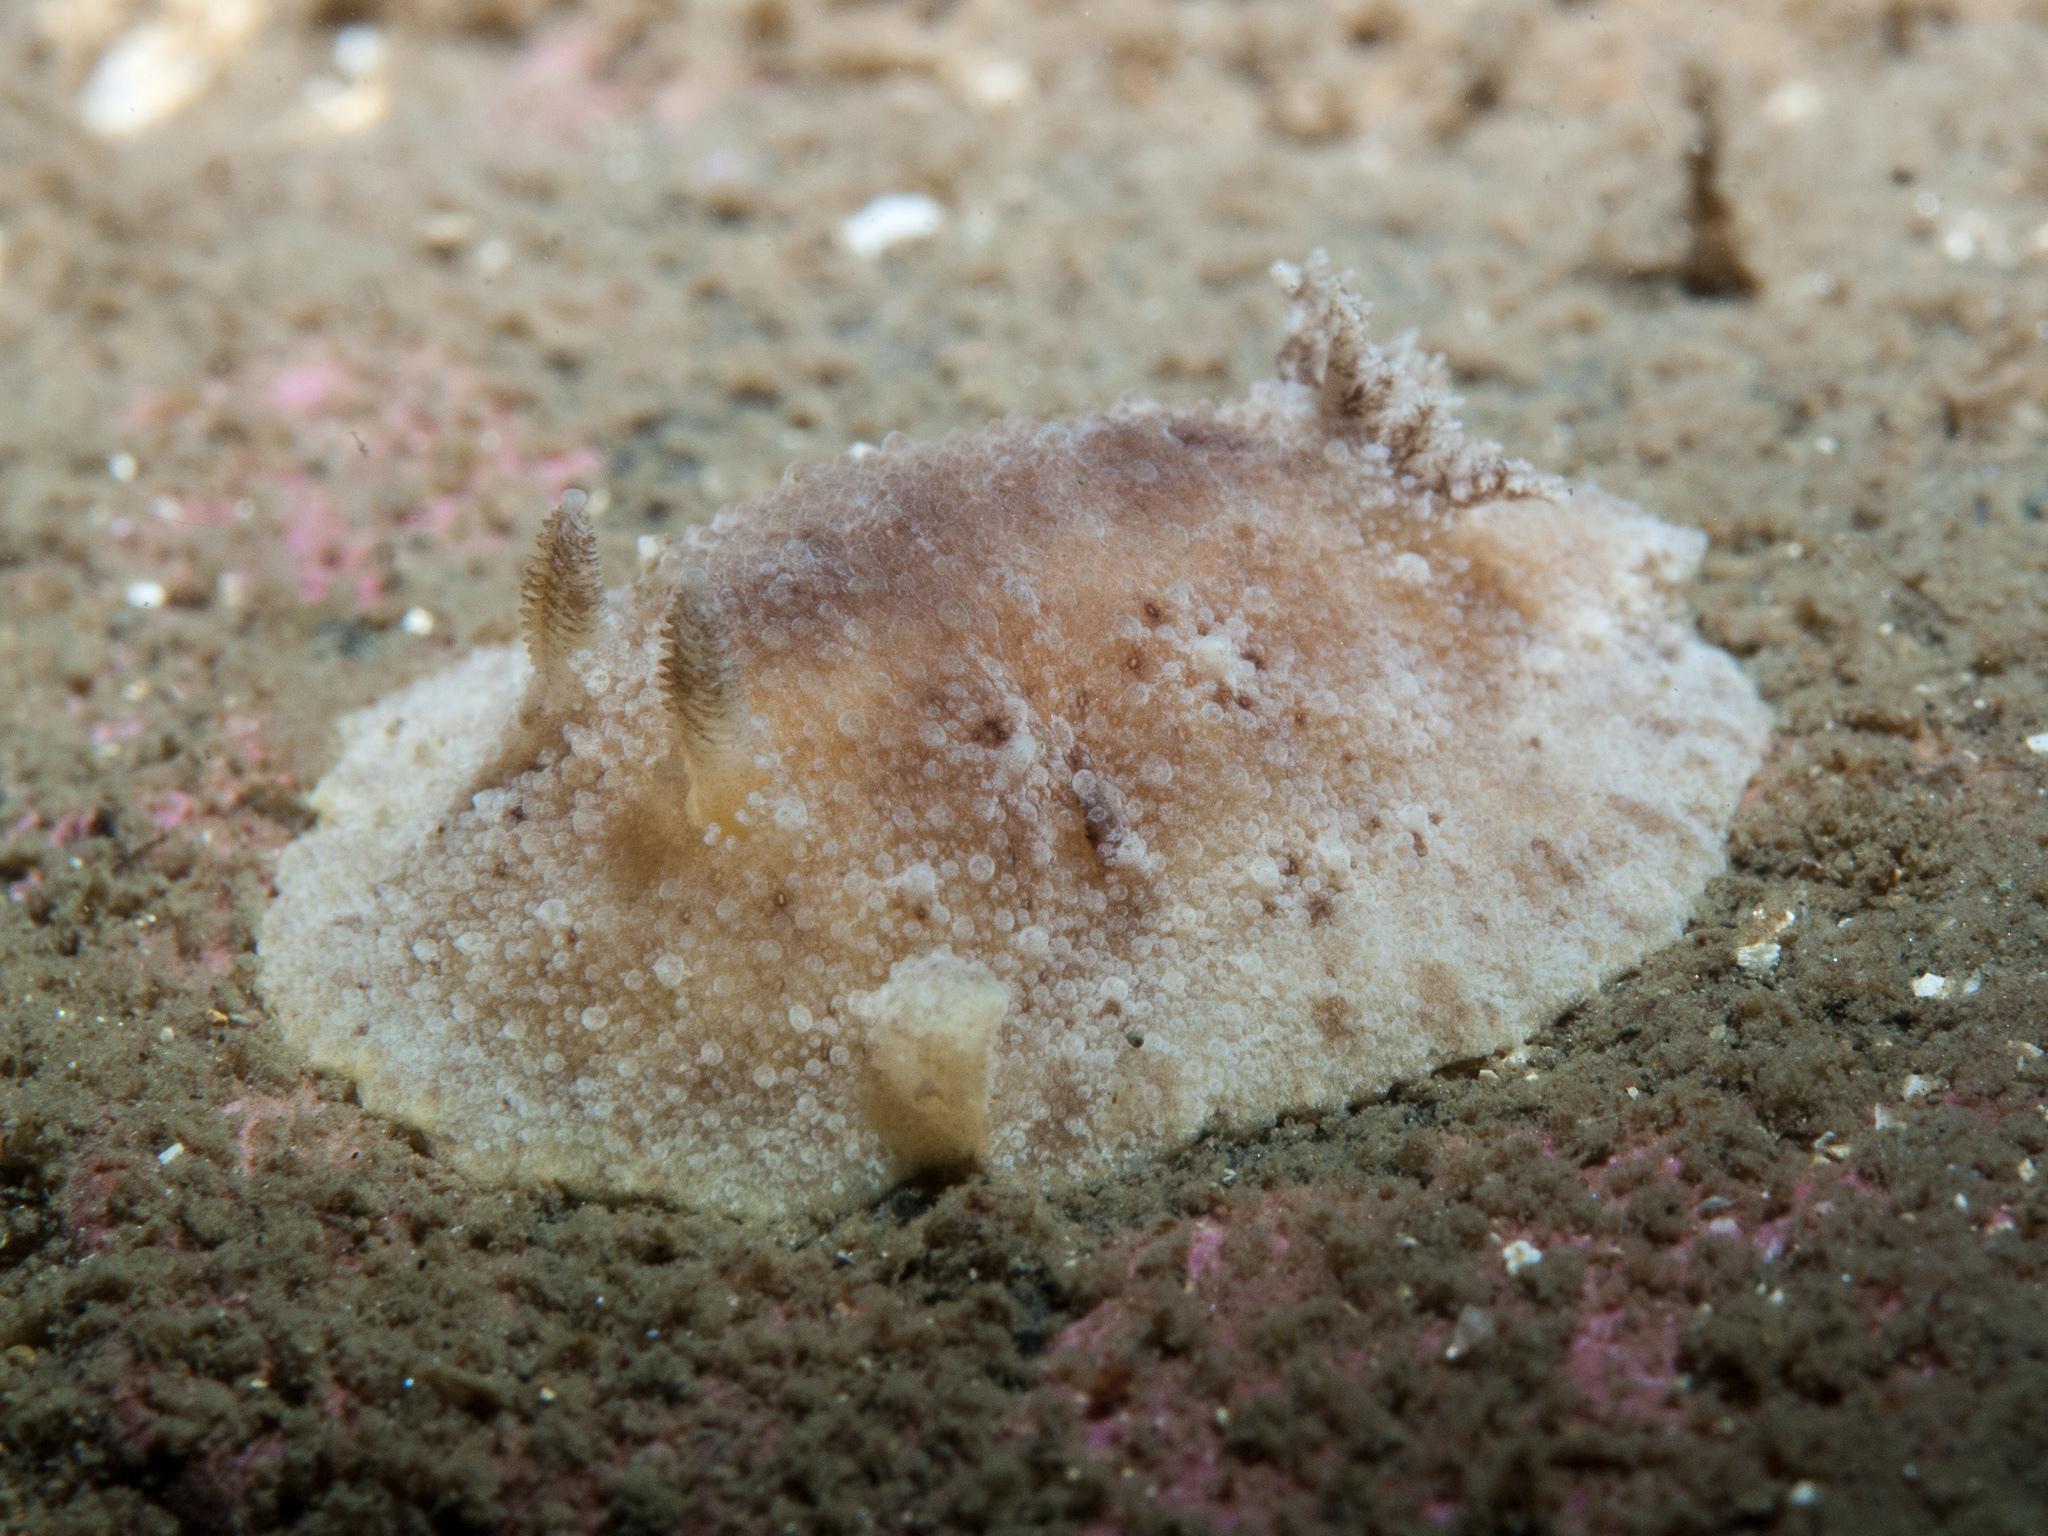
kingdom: Animalia
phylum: Mollusca
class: Gastropoda
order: Nudibranchia
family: Discodorididae
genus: Geitodoris
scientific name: Geitodoris planata
